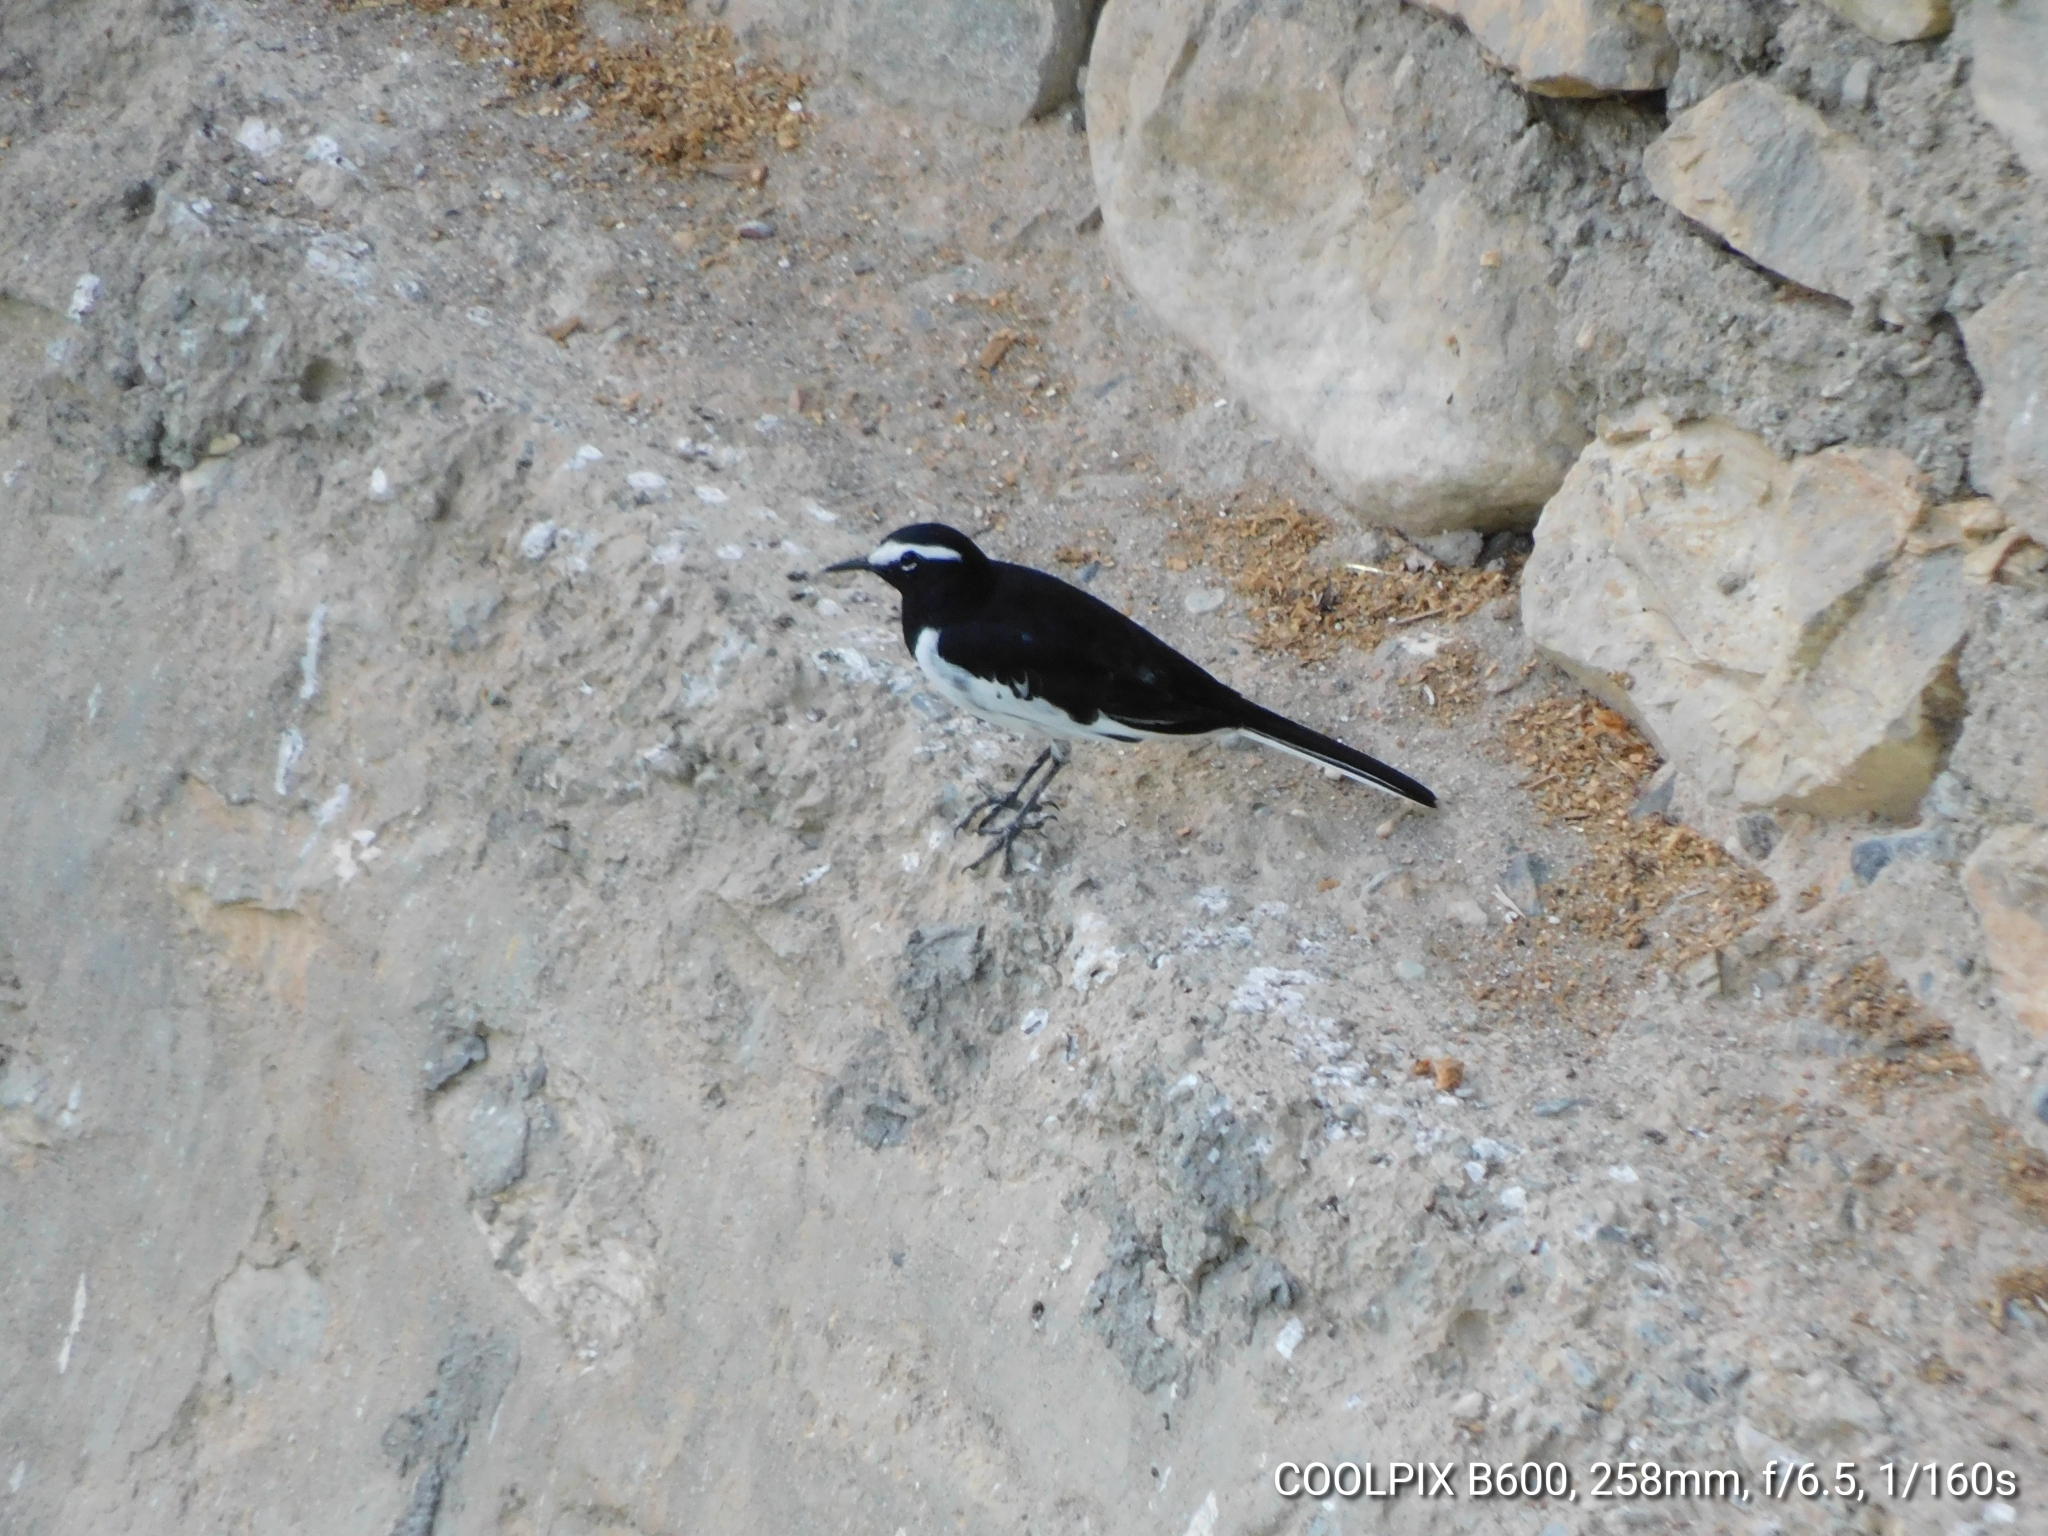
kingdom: Animalia
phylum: Chordata
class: Aves
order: Passeriformes
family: Motacillidae
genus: Motacilla
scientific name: Motacilla maderaspatensis
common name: White-browed wagtail
